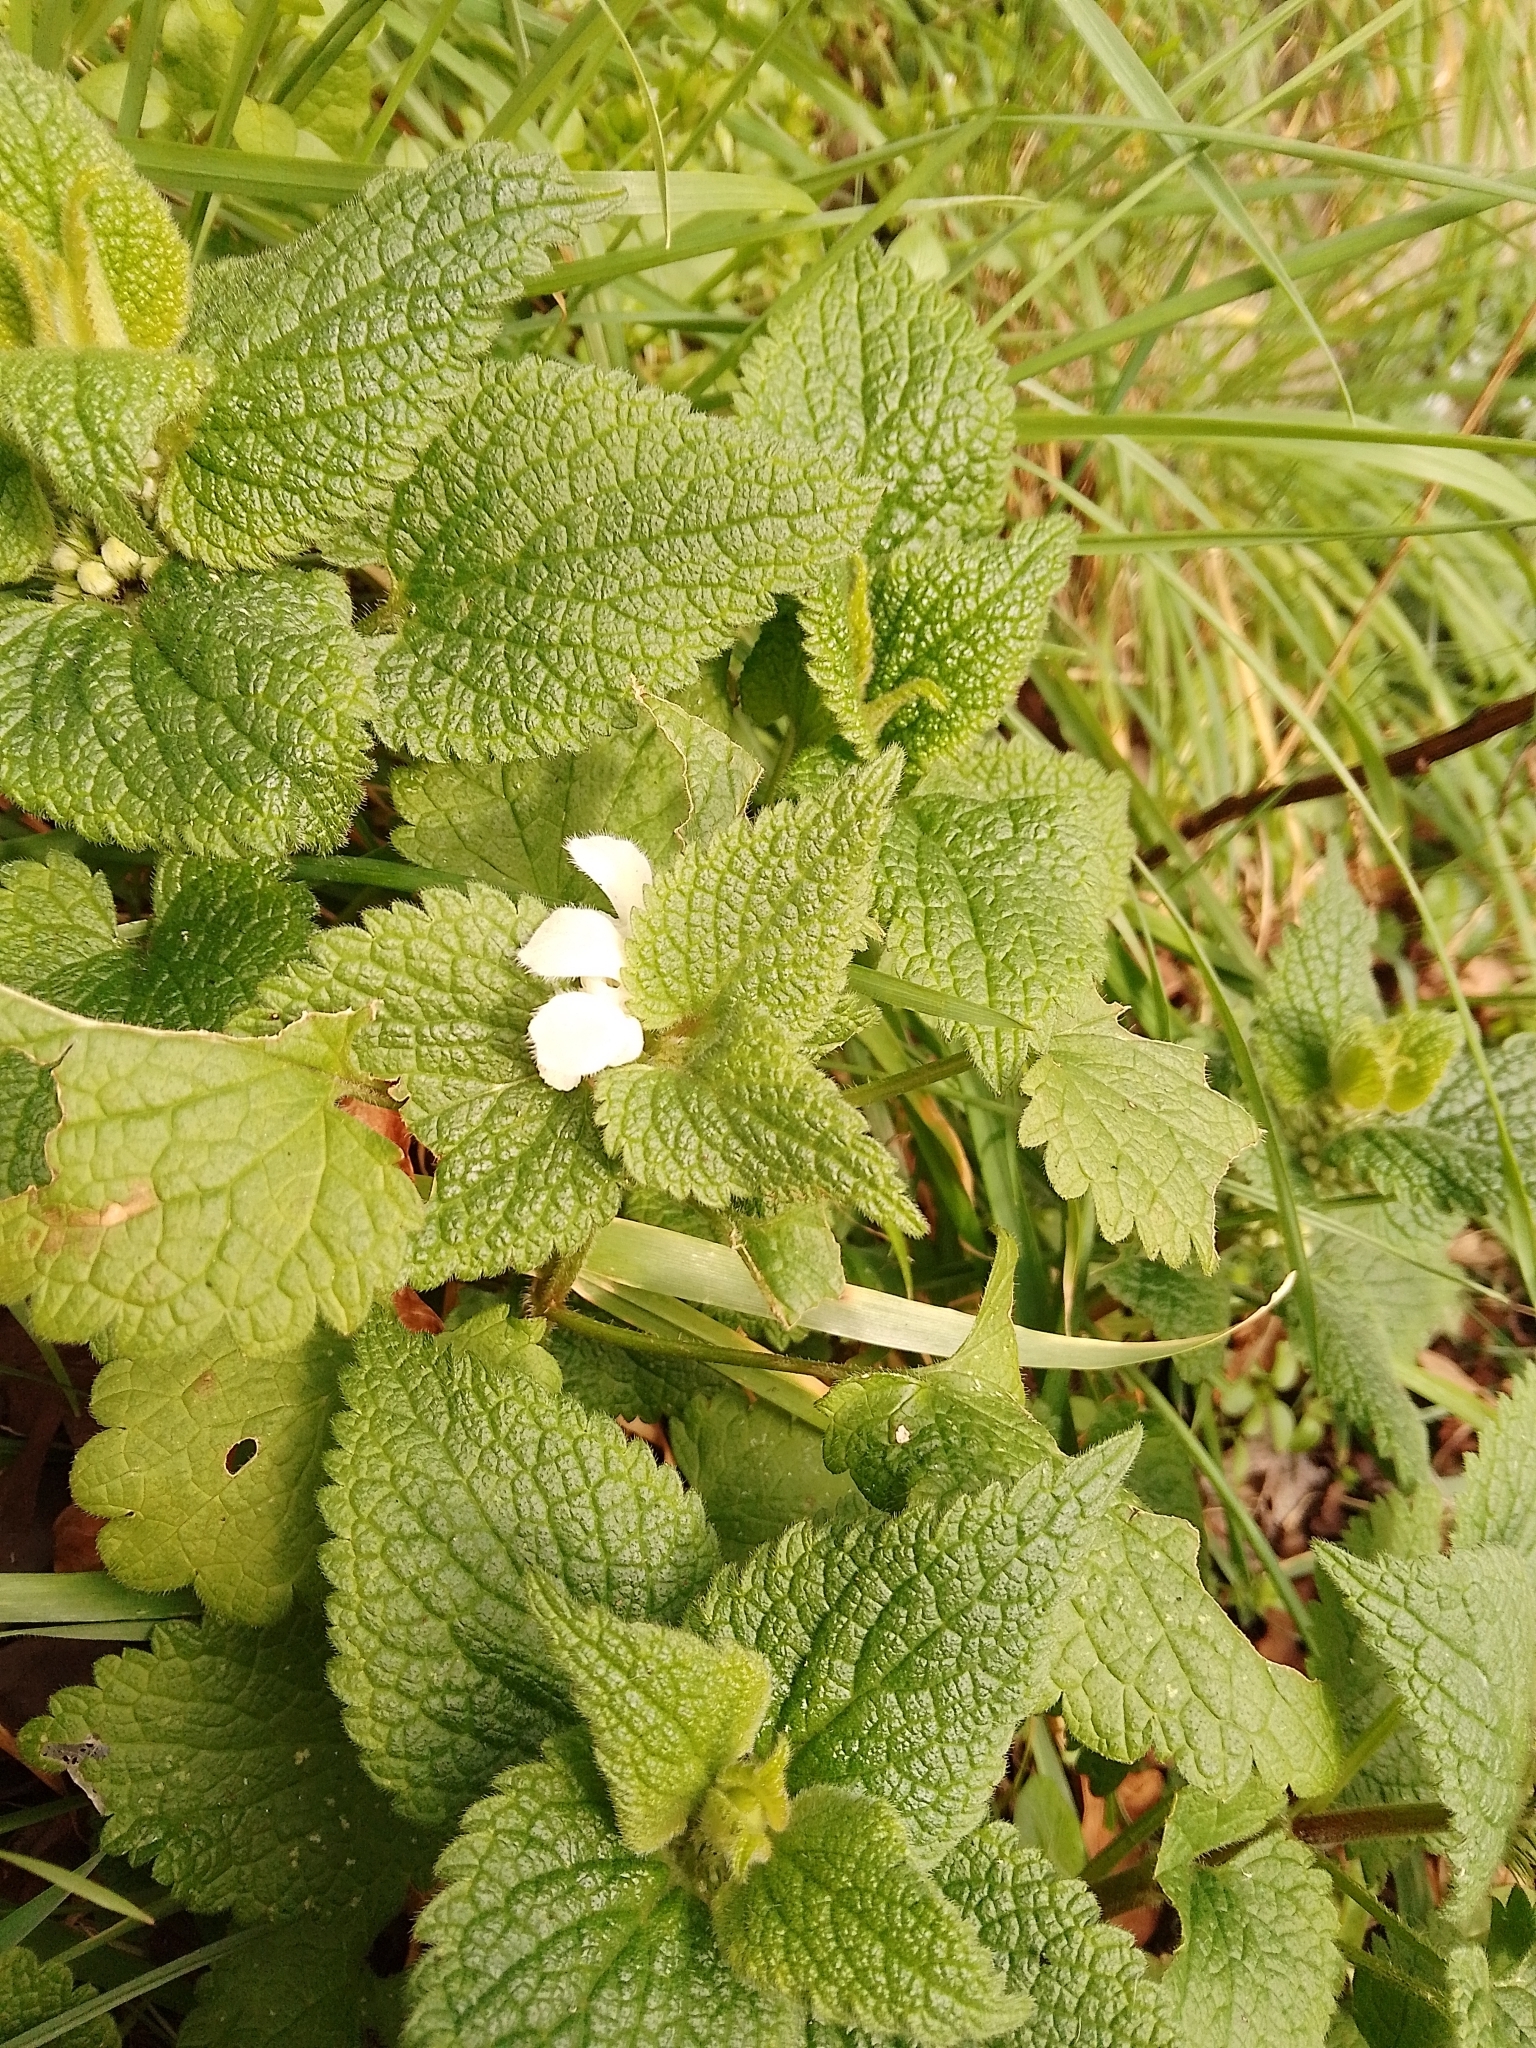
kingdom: Plantae
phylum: Tracheophyta
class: Magnoliopsida
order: Lamiales
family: Lamiaceae
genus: Lamium
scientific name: Lamium album
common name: White dead-nettle
